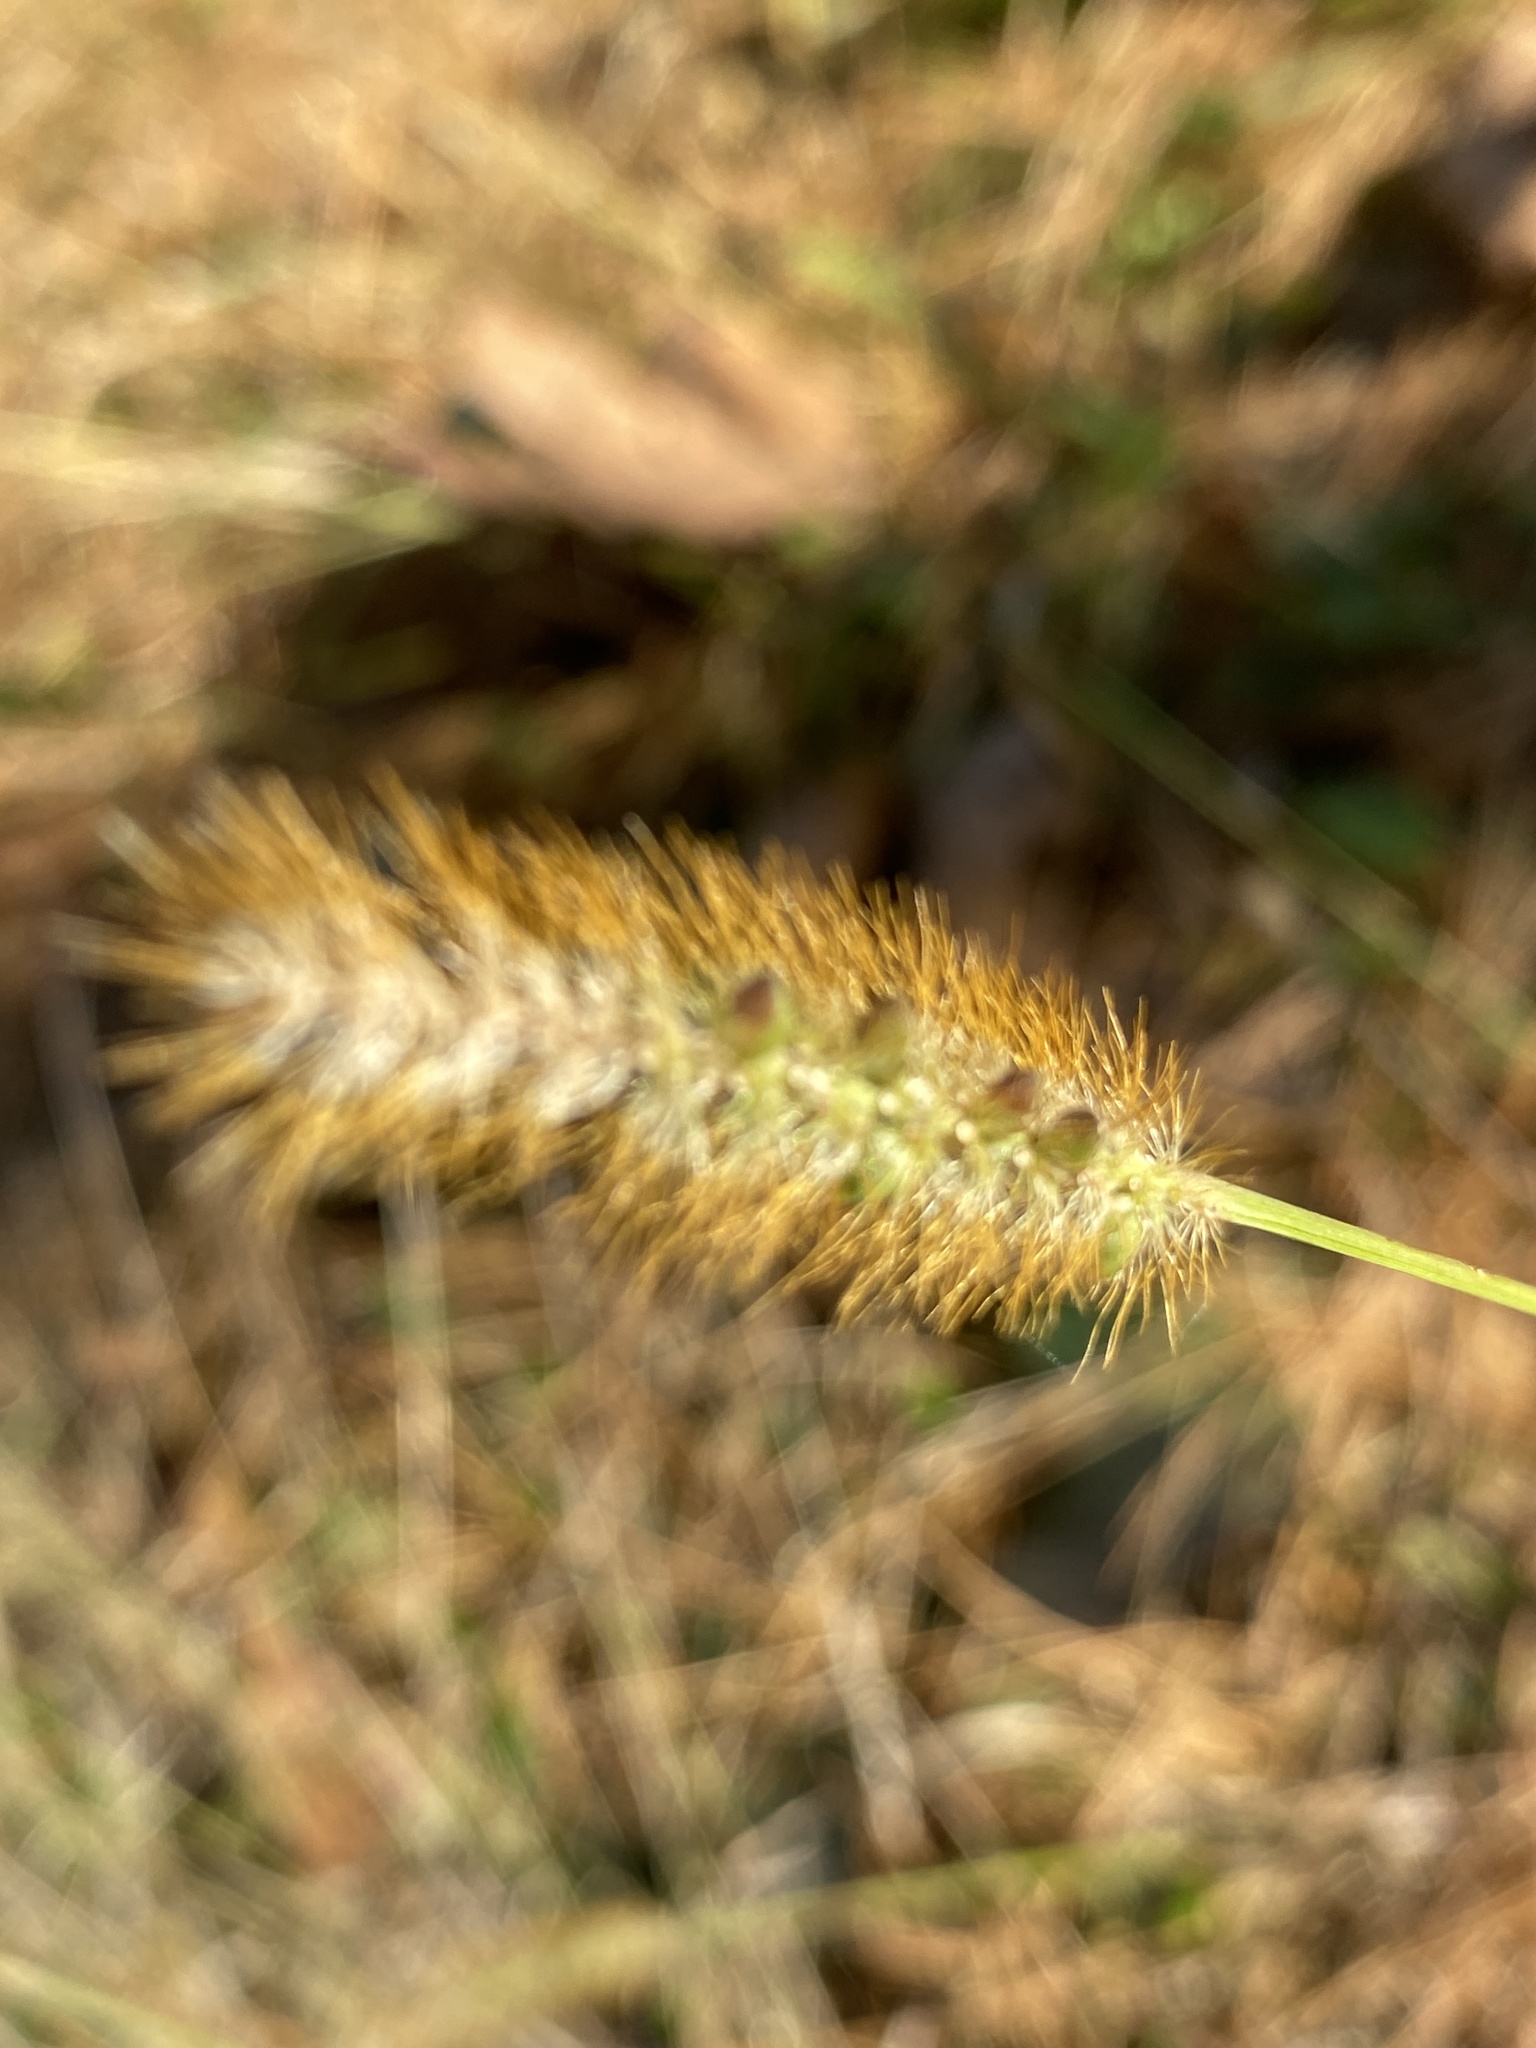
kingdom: Plantae
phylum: Tracheophyta
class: Liliopsida
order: Poales
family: Poaceae
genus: Setaria
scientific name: Setaria pumila
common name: Yellow bristle-grass
